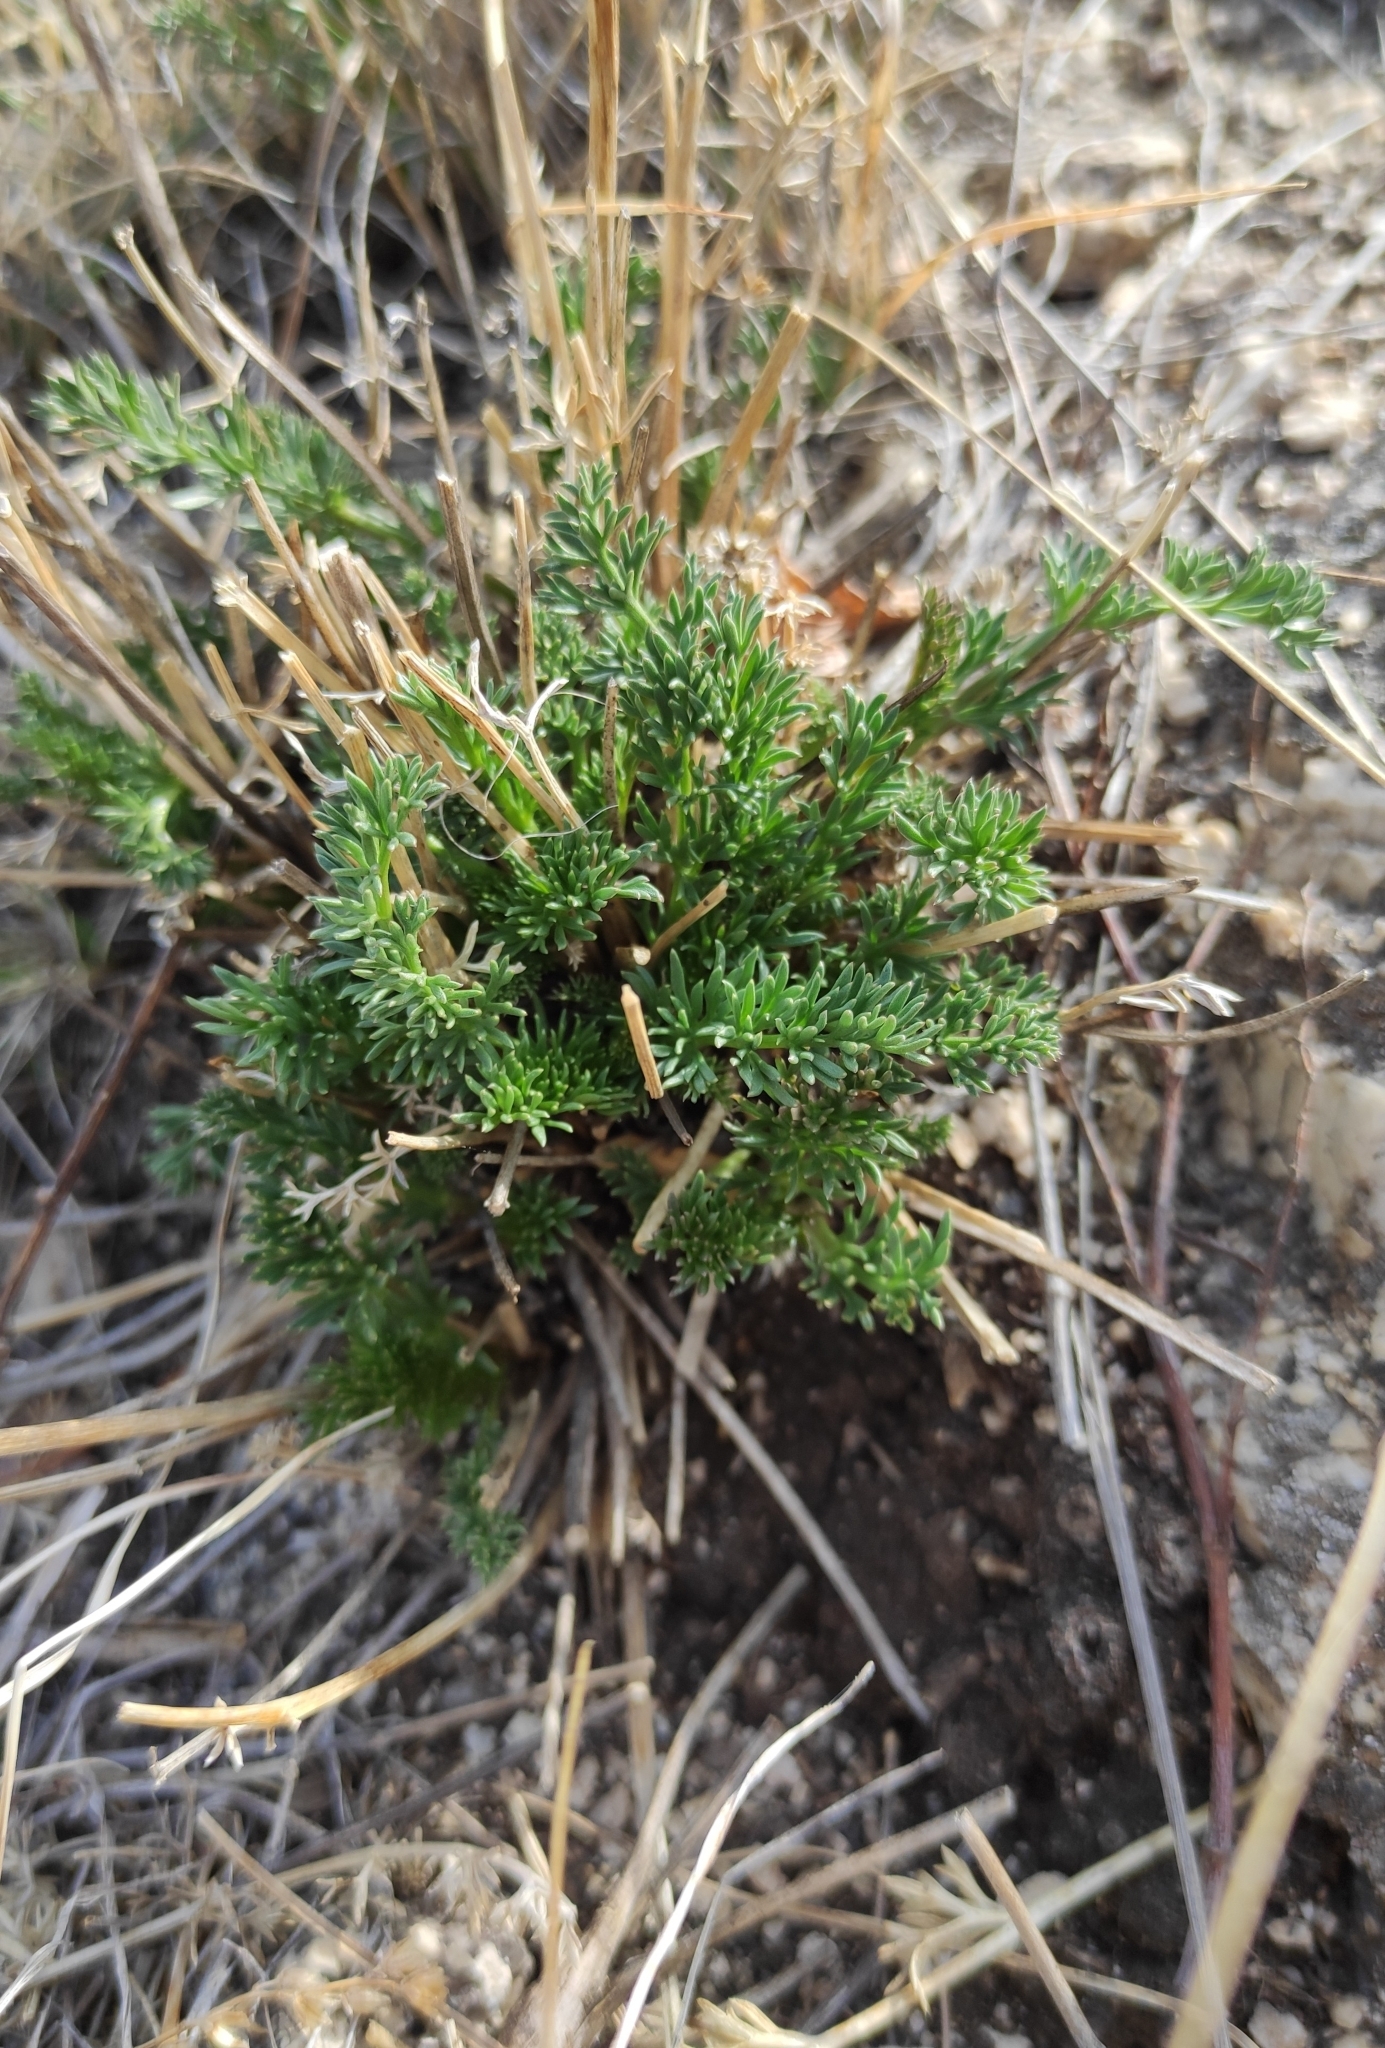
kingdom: Plantae
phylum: Tracheophyta
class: Magnoliopsida
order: Apiales
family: Apiaceae
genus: Ferulopsis
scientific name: Ferulopsis hystrix
